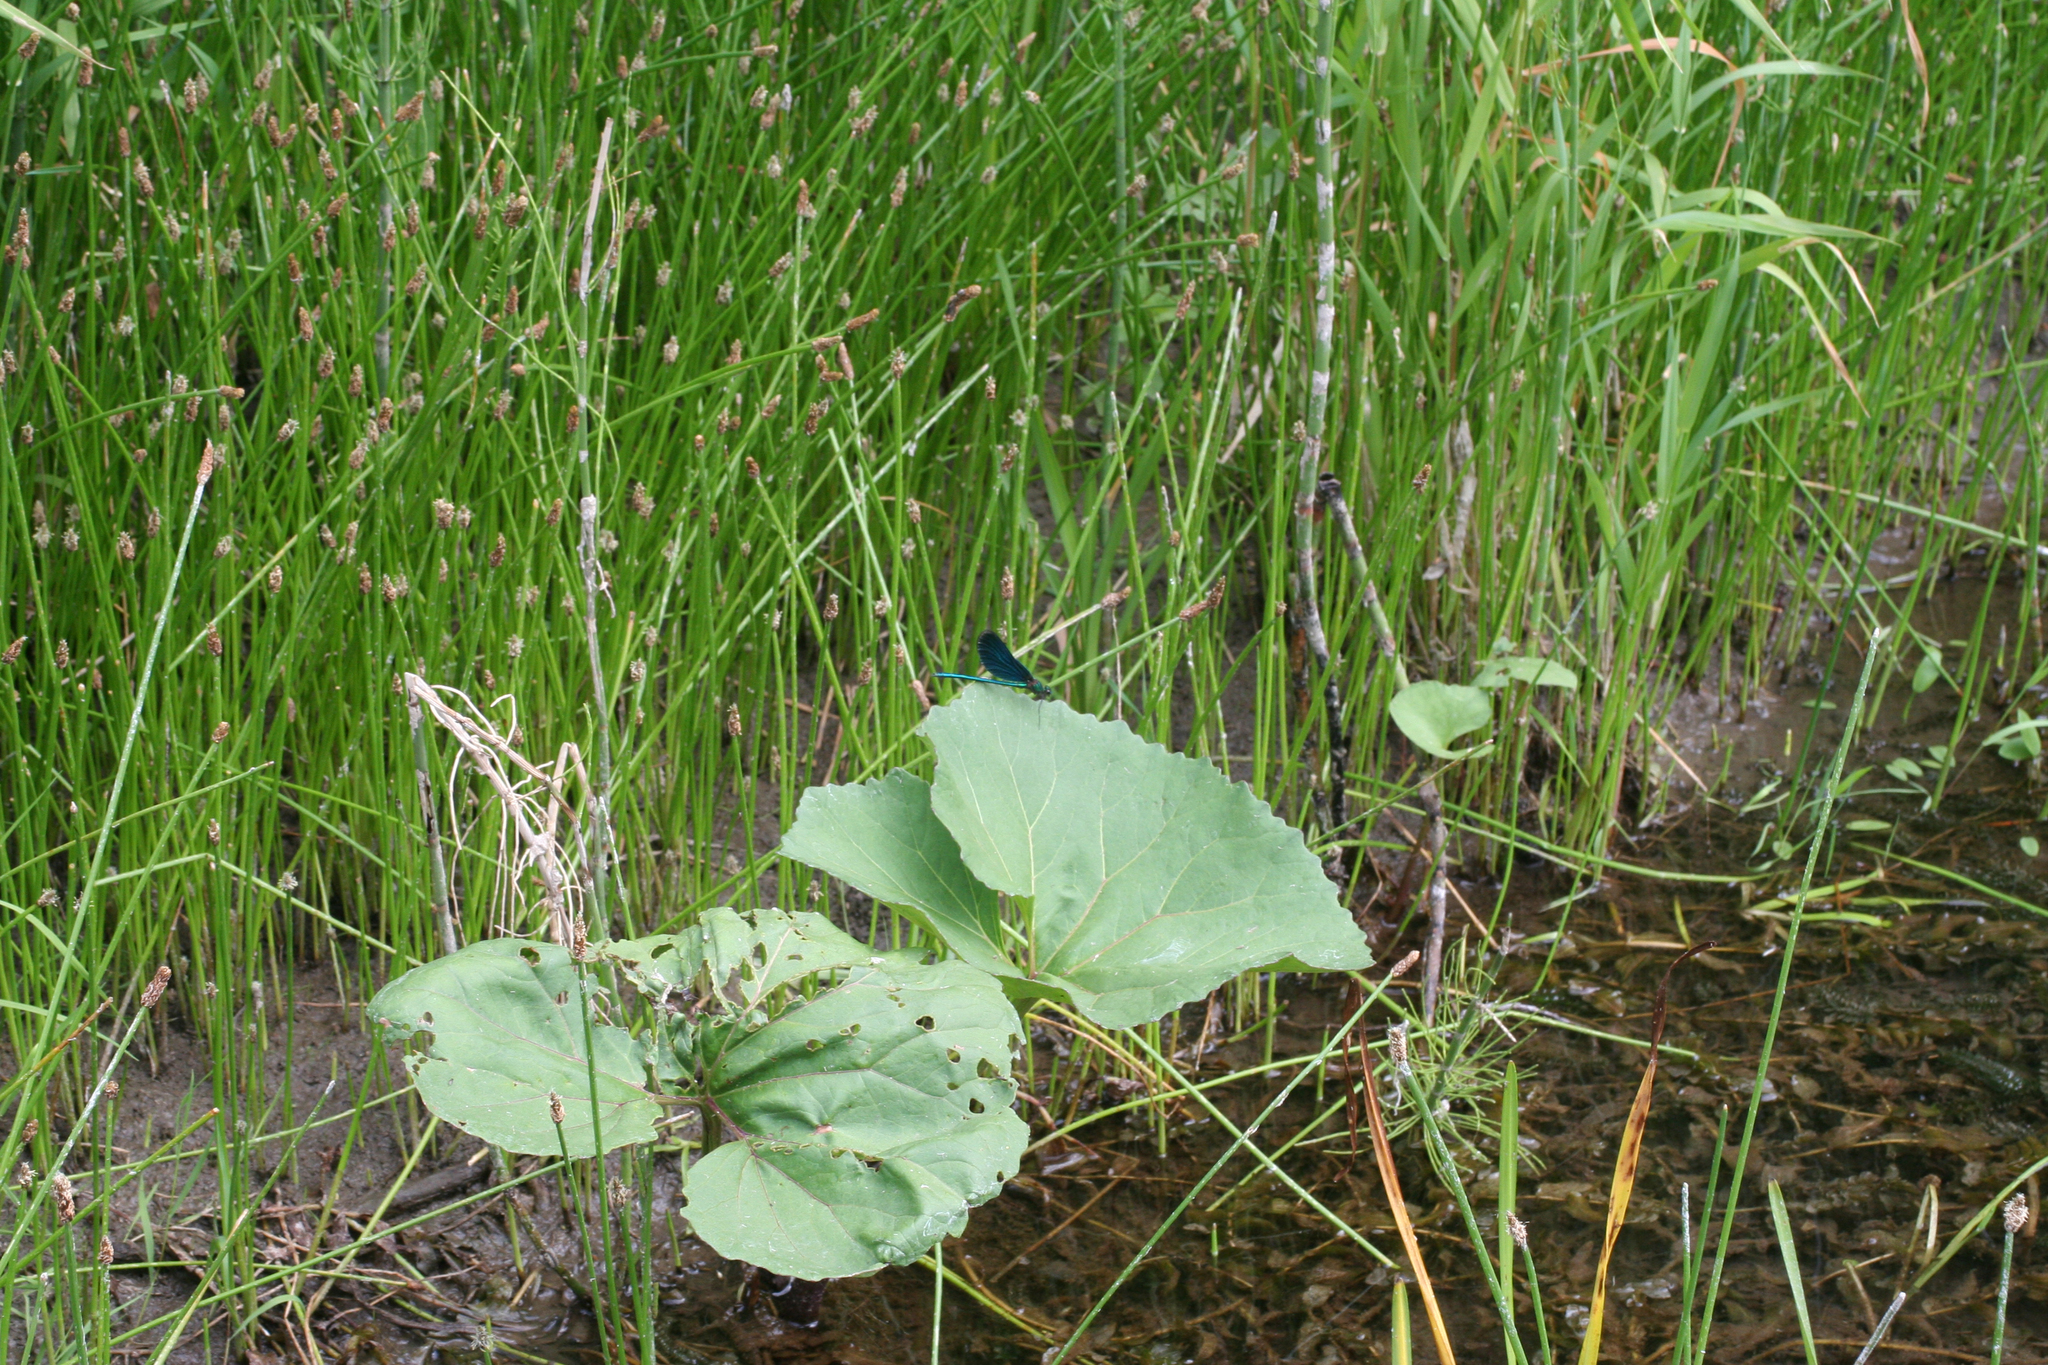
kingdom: Plantae
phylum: Tracheophyta
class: Magnoliopsida
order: Asterales
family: Asteraceae
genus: Petasites
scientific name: Petasites radiatus
